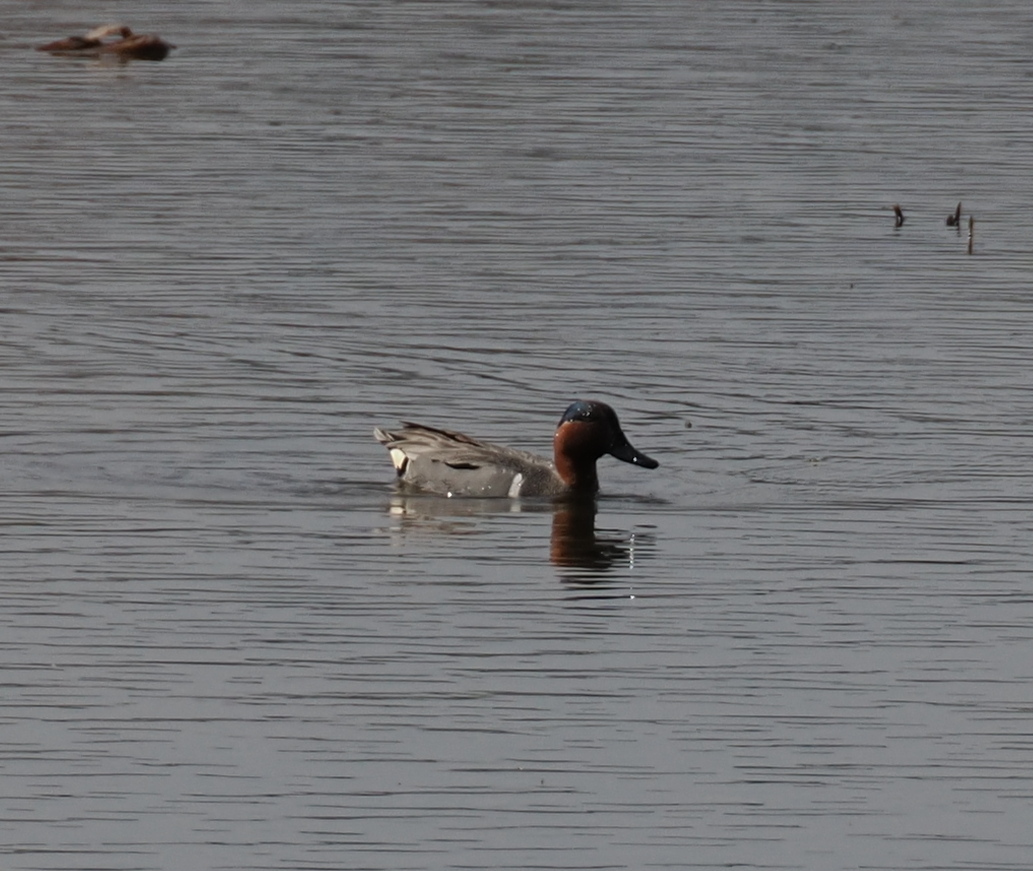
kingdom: Animalia
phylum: Chordata
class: Aves
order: Anseriformes
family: Anatidae
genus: Anas
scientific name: Anas crecca
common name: Eurasian teal
